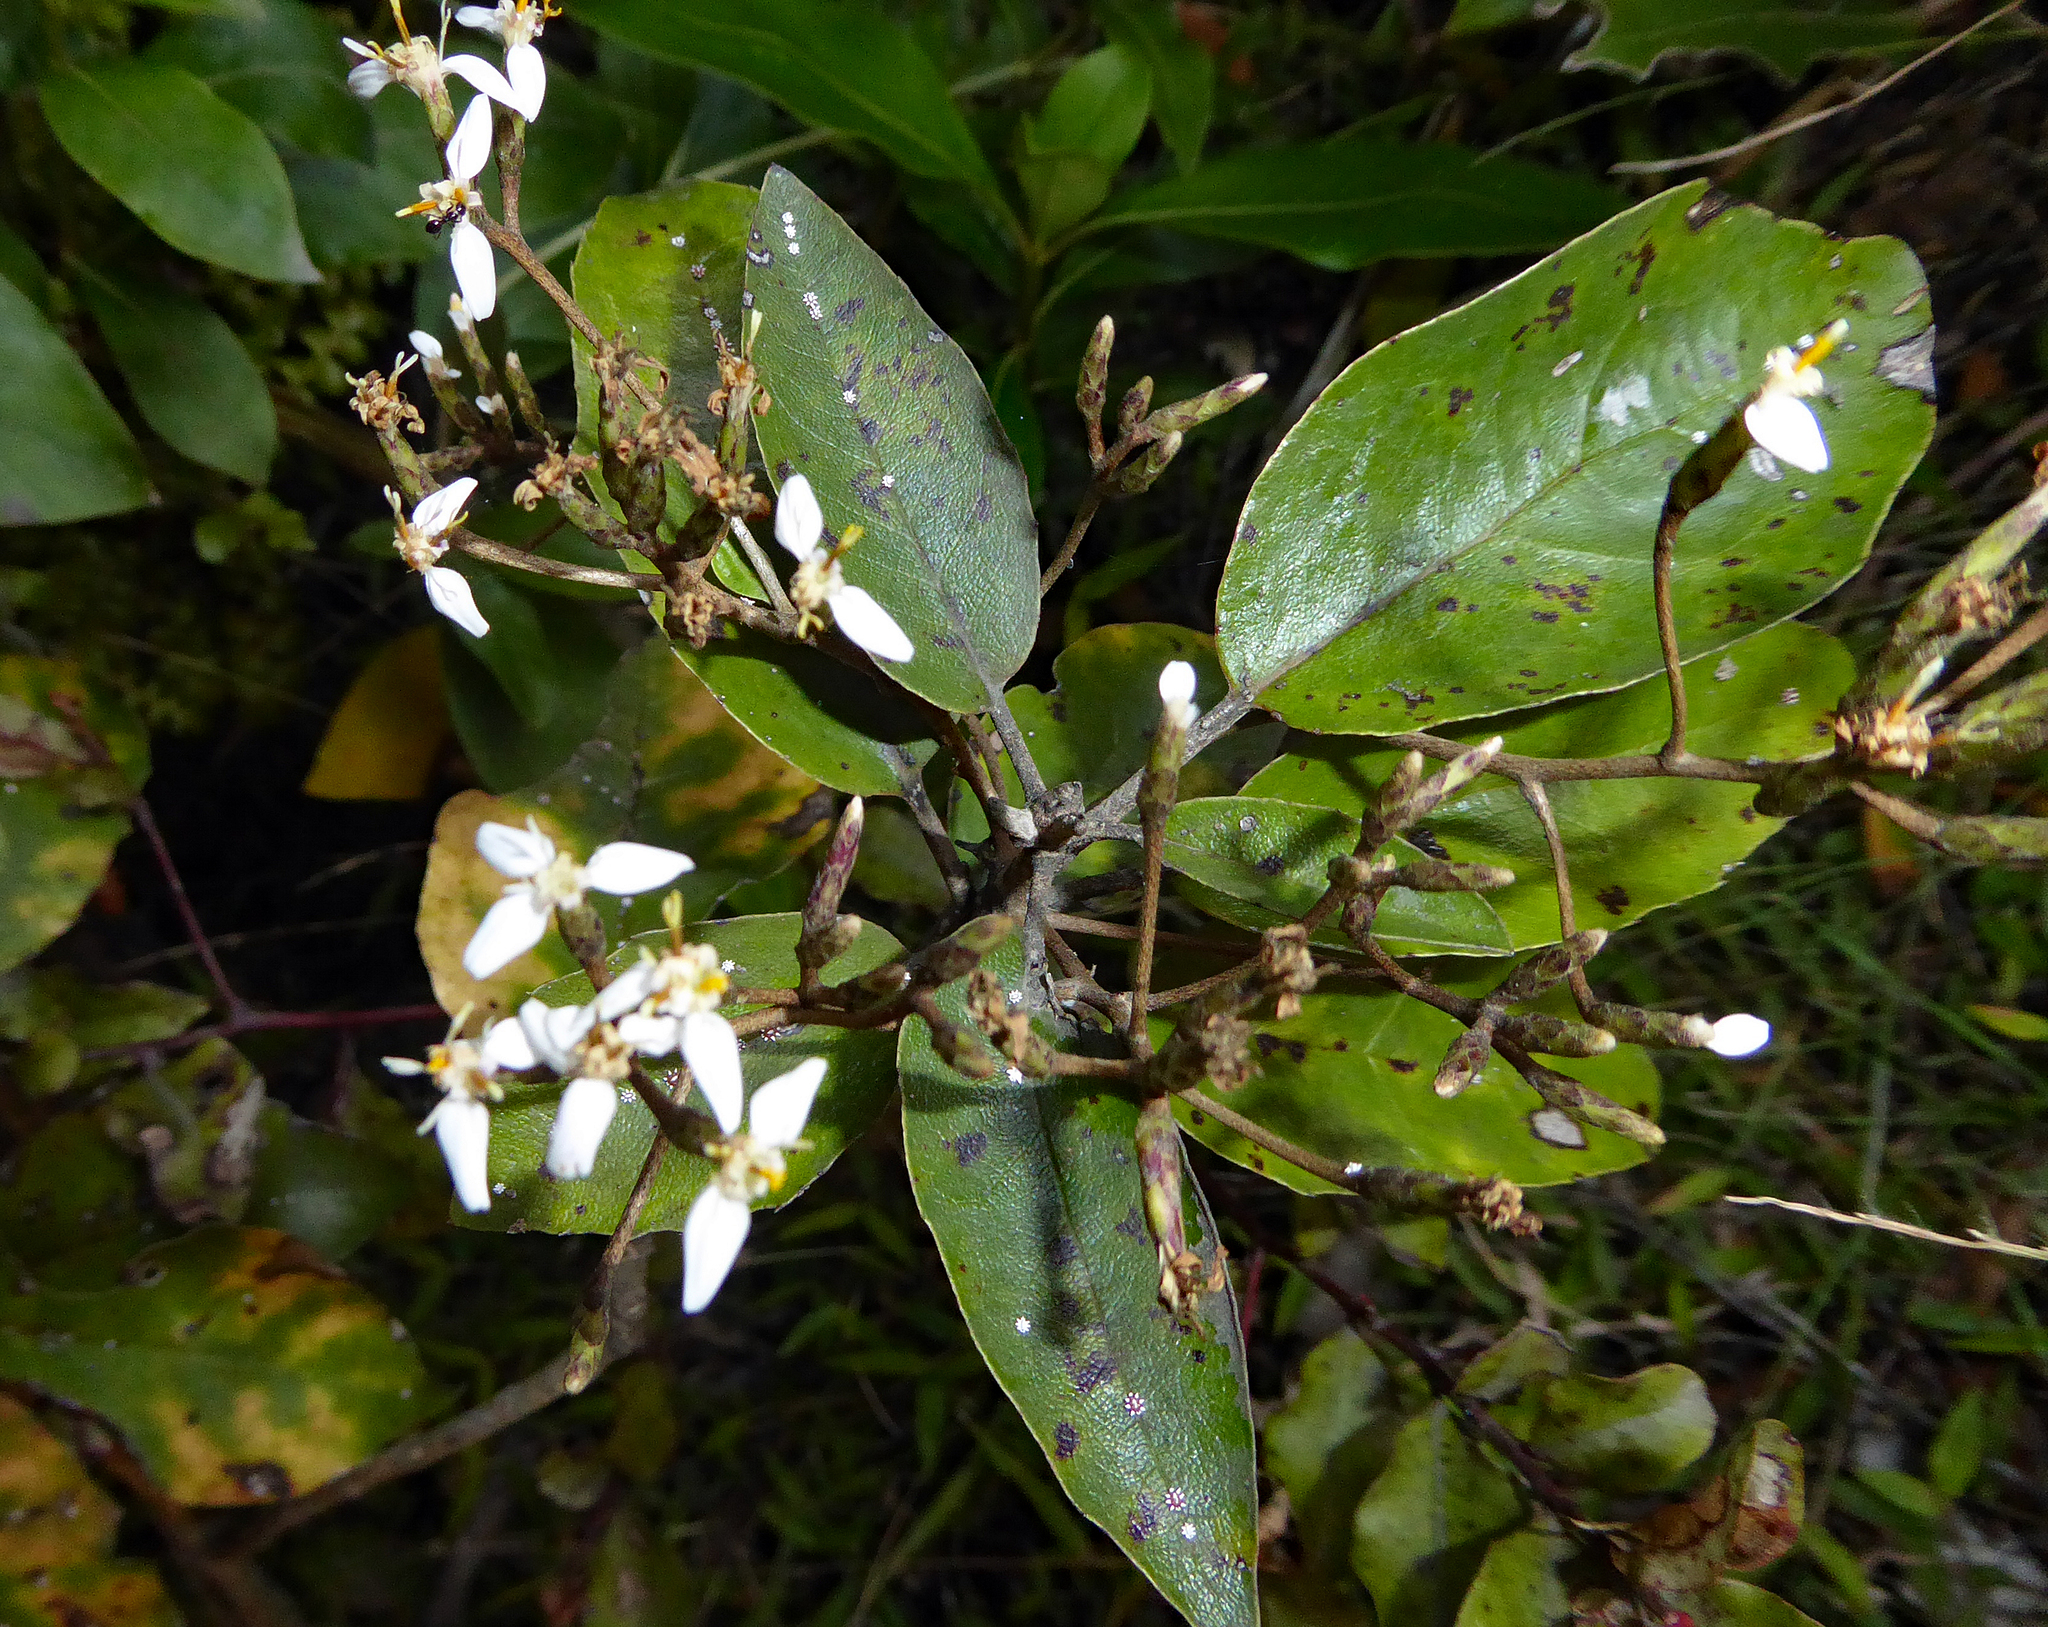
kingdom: Plantae
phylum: Tracheophyta
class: Magnoliopsida
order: Asterales
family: Asteraceae
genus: Olearia
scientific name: Olearia furfuracea
